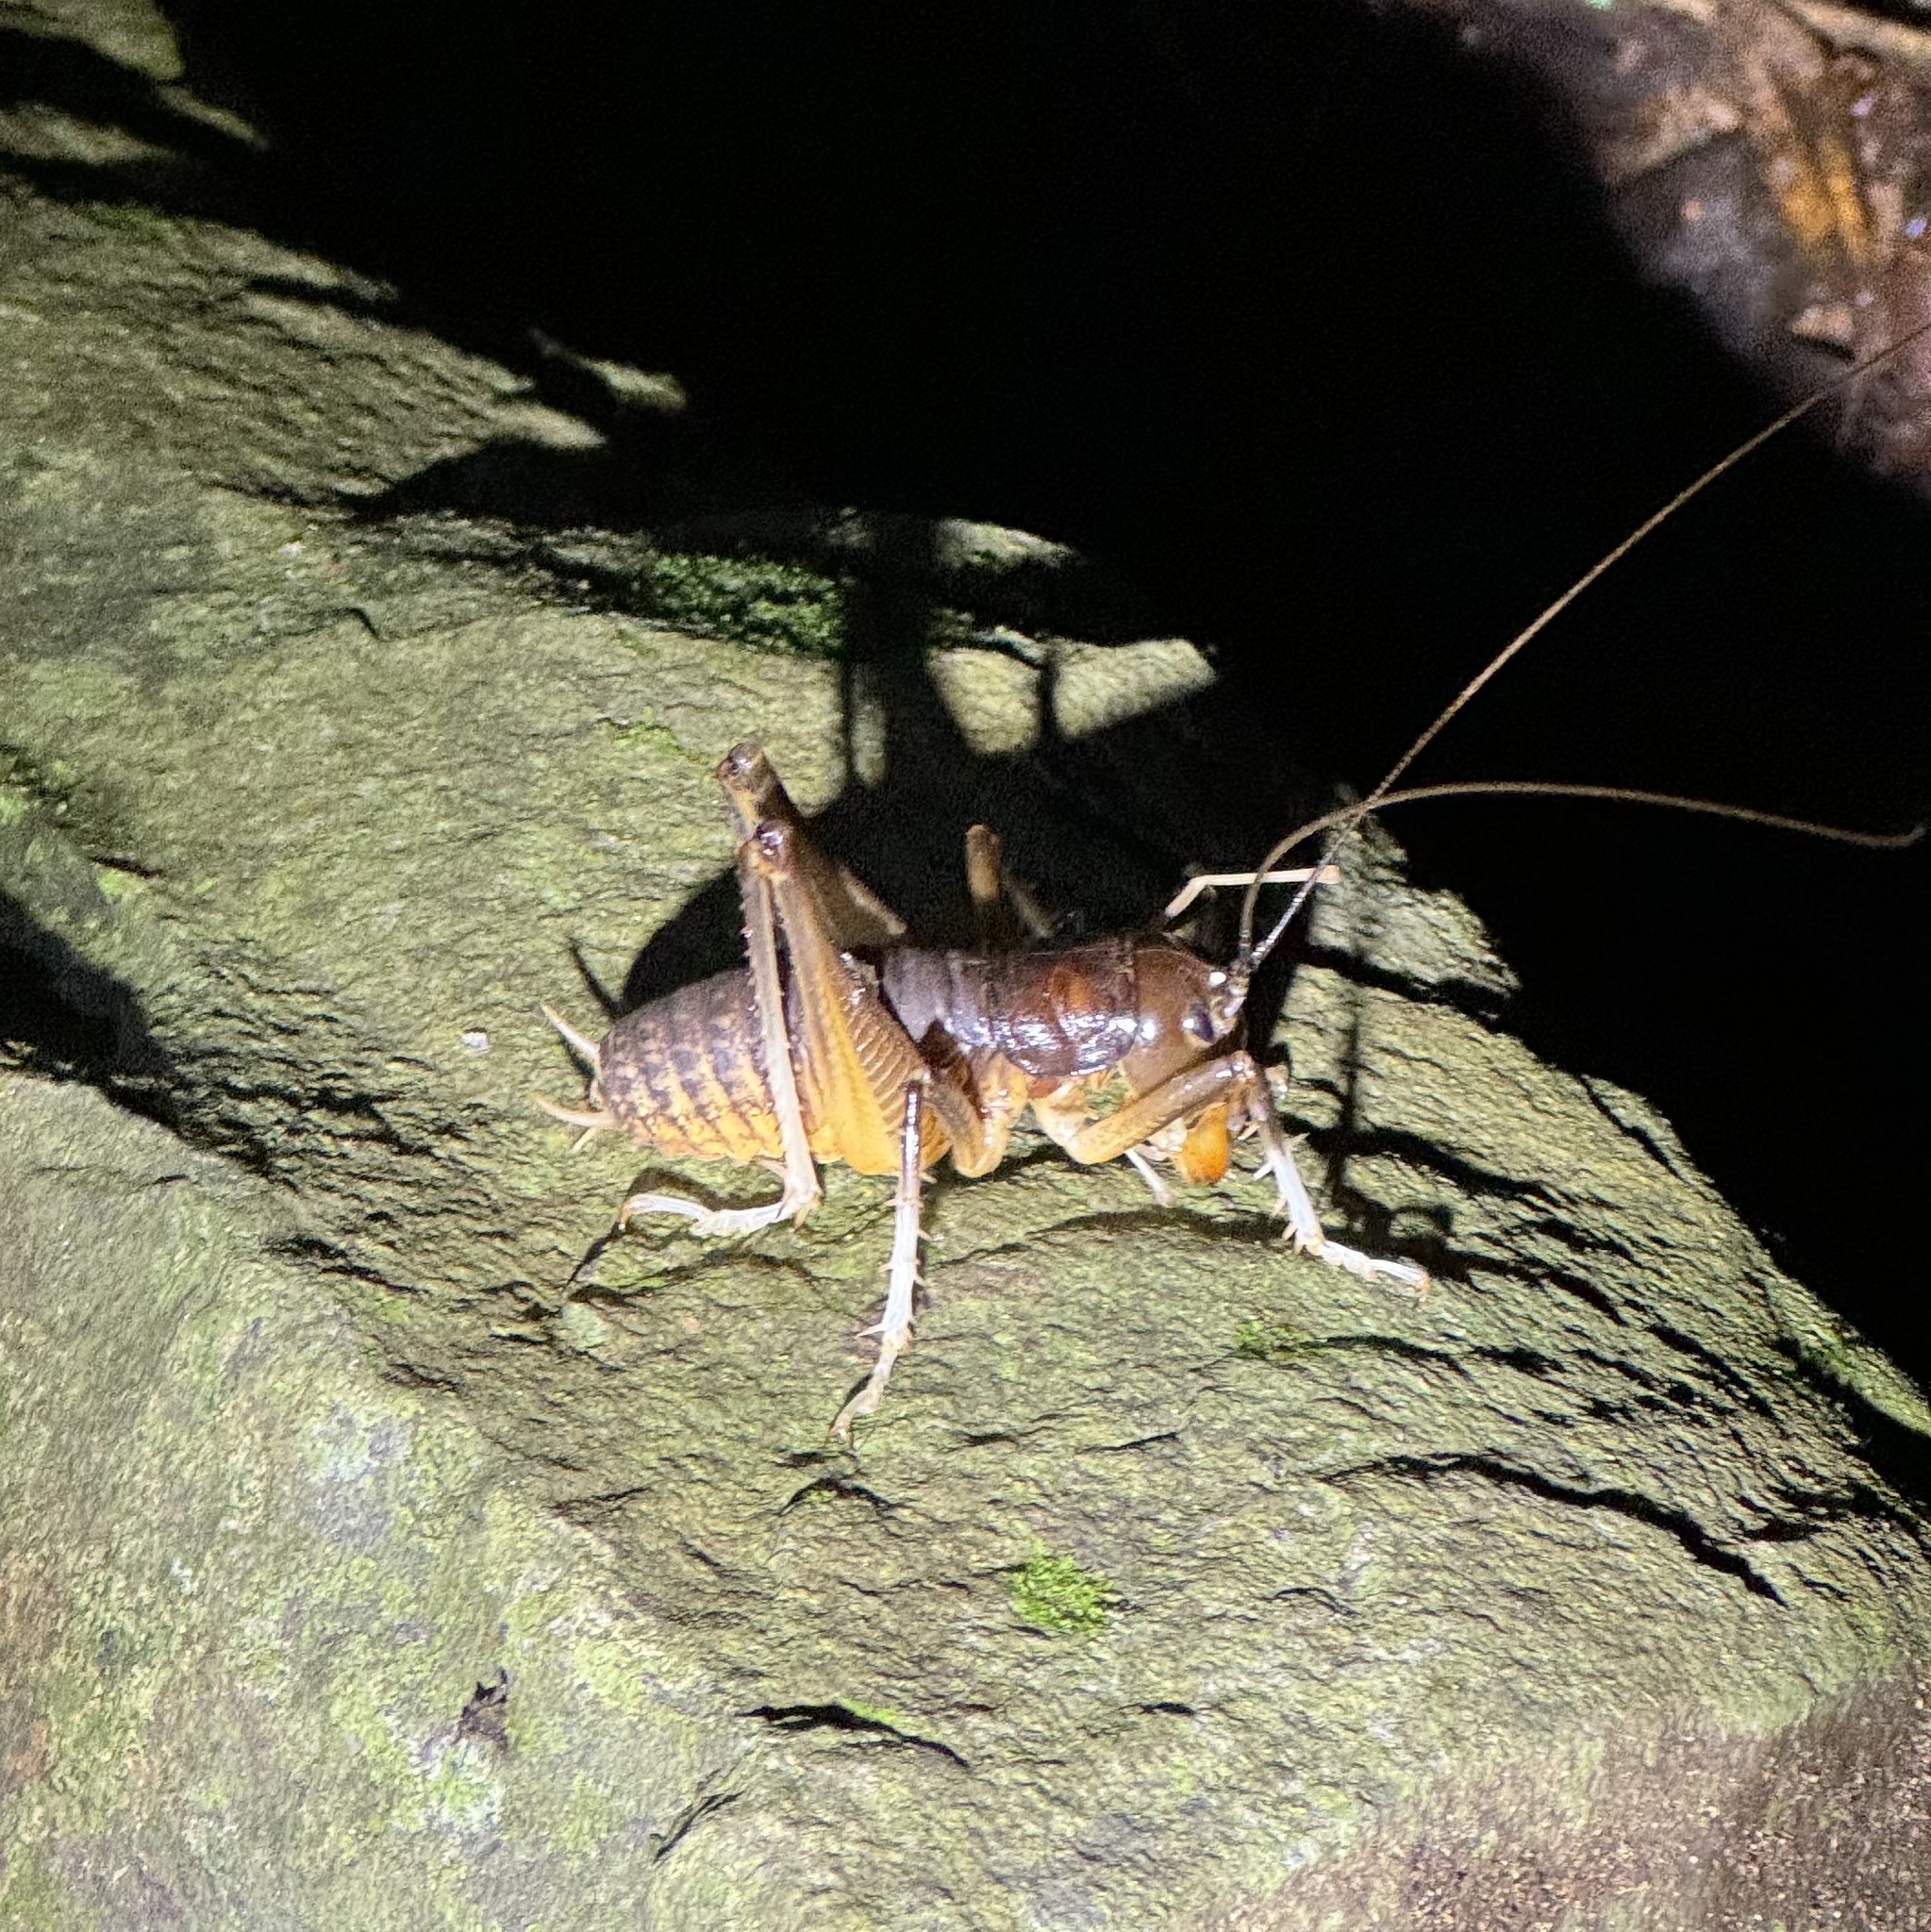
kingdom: Animalia
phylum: Arthropoda
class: Insecta
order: Orthoptera
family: Anostostomatidae
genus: Anostostoma
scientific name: Anostostoma australasiae
